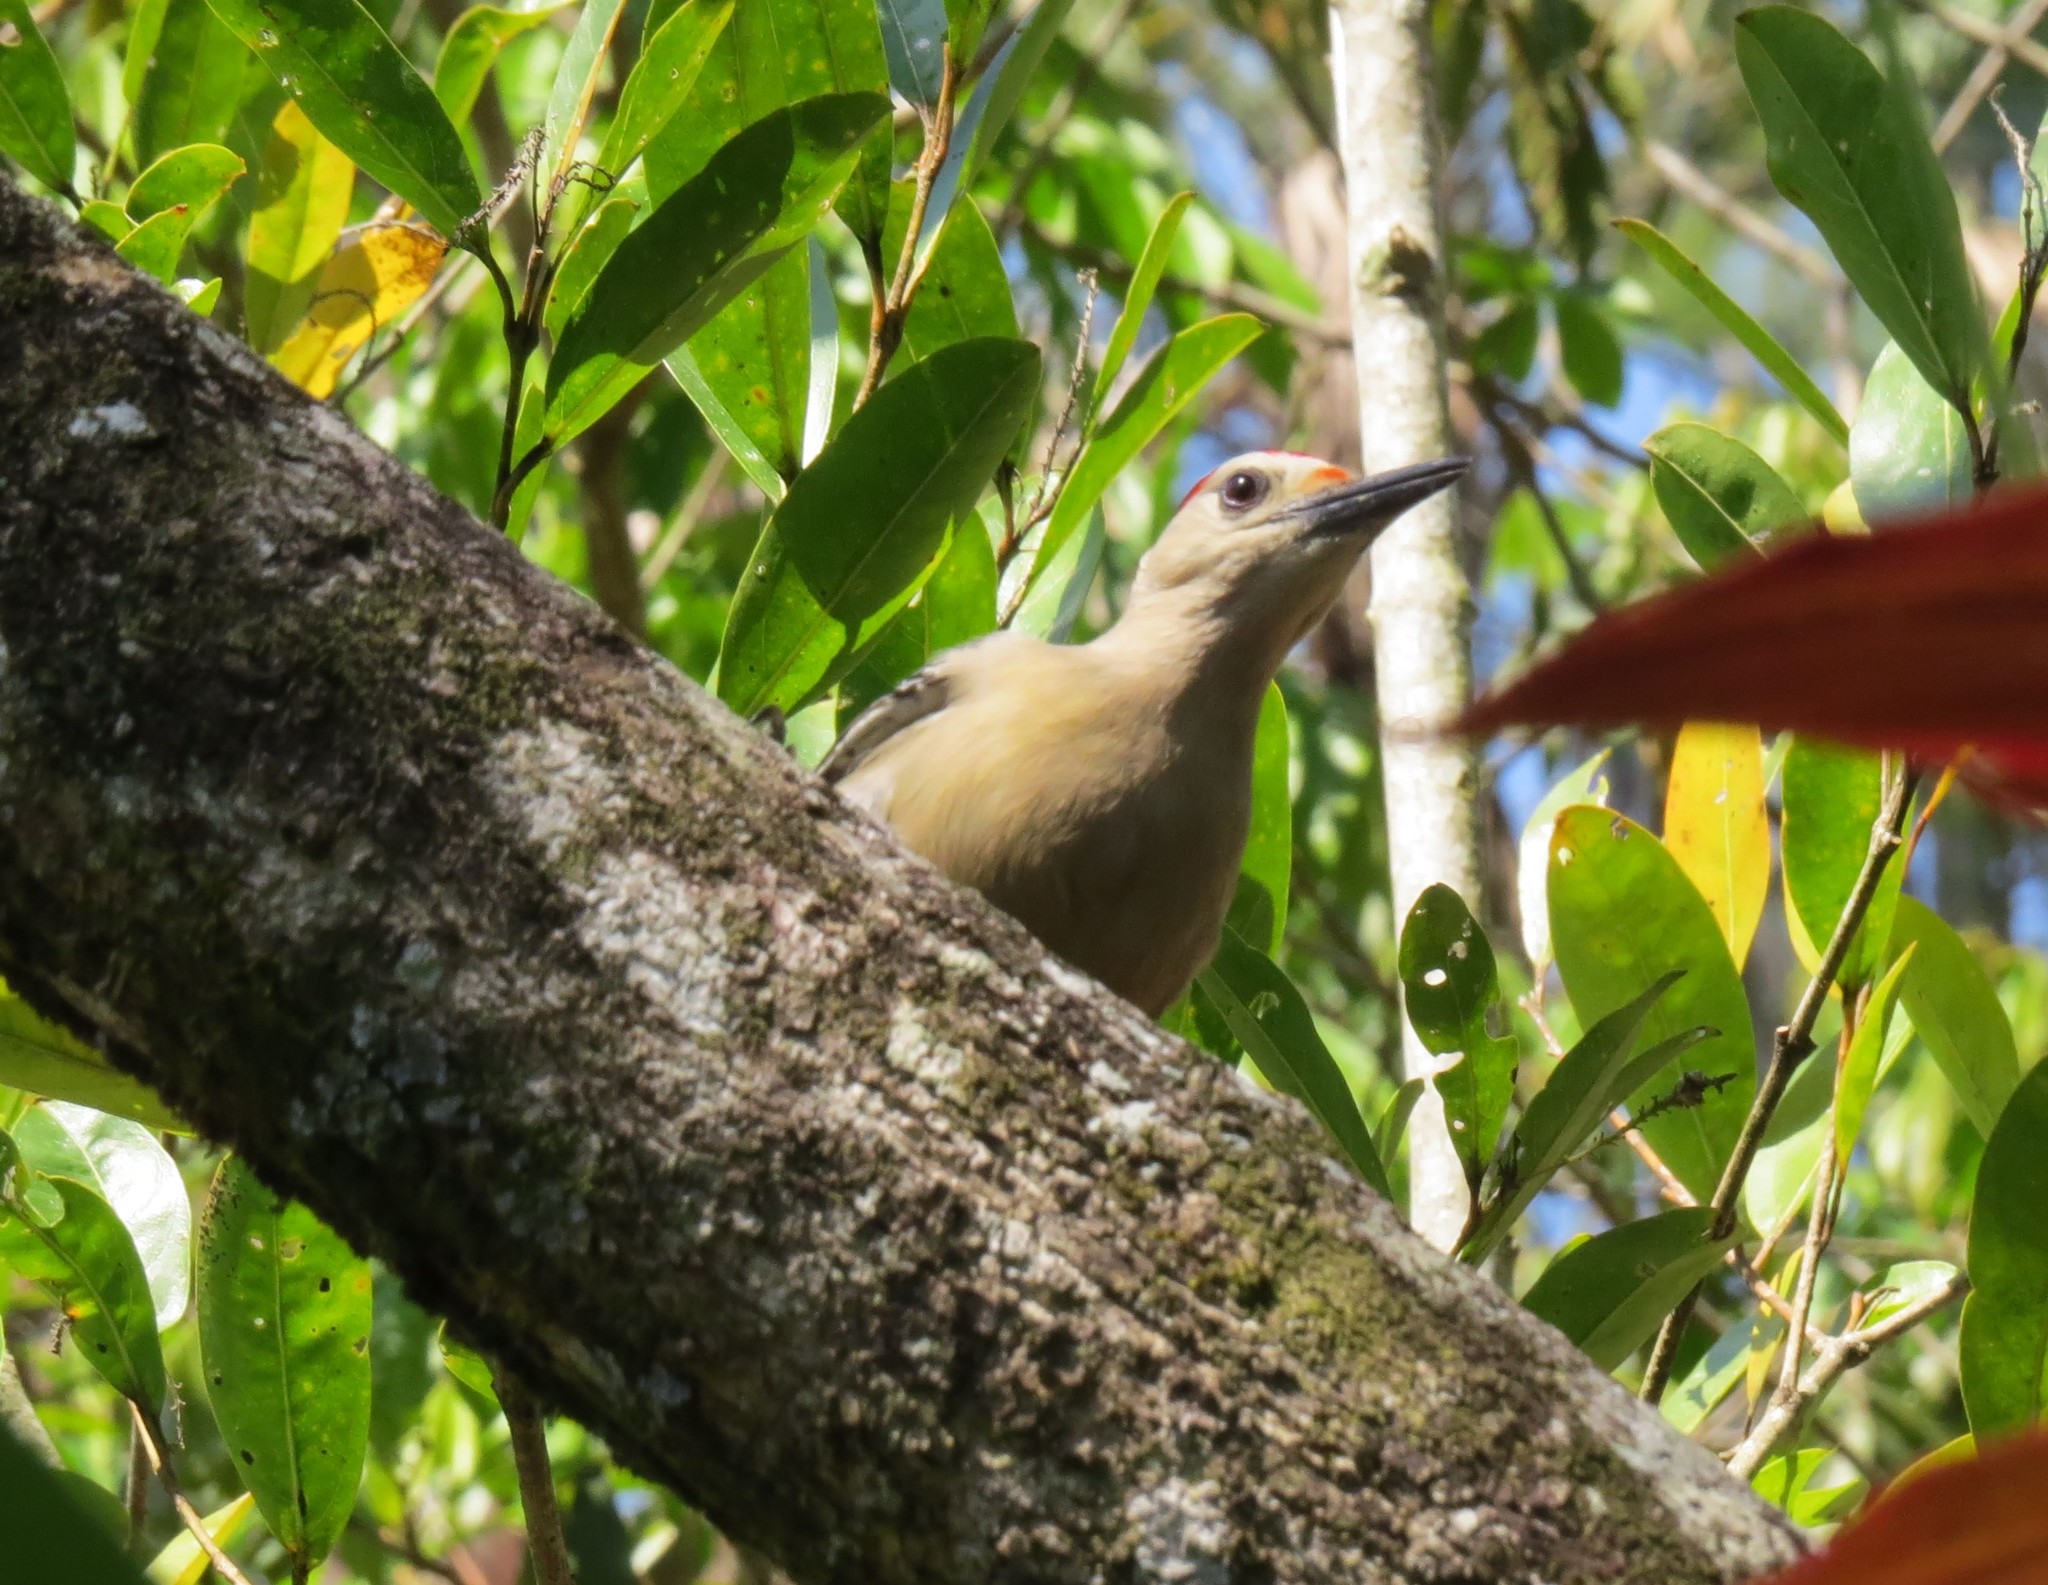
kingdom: Animalia
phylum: Chordata
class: Aves
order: Piciformes
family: Picidae
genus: Melanerpes
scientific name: Melanerpes aurifrons
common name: Golden-fronted woodpecker
